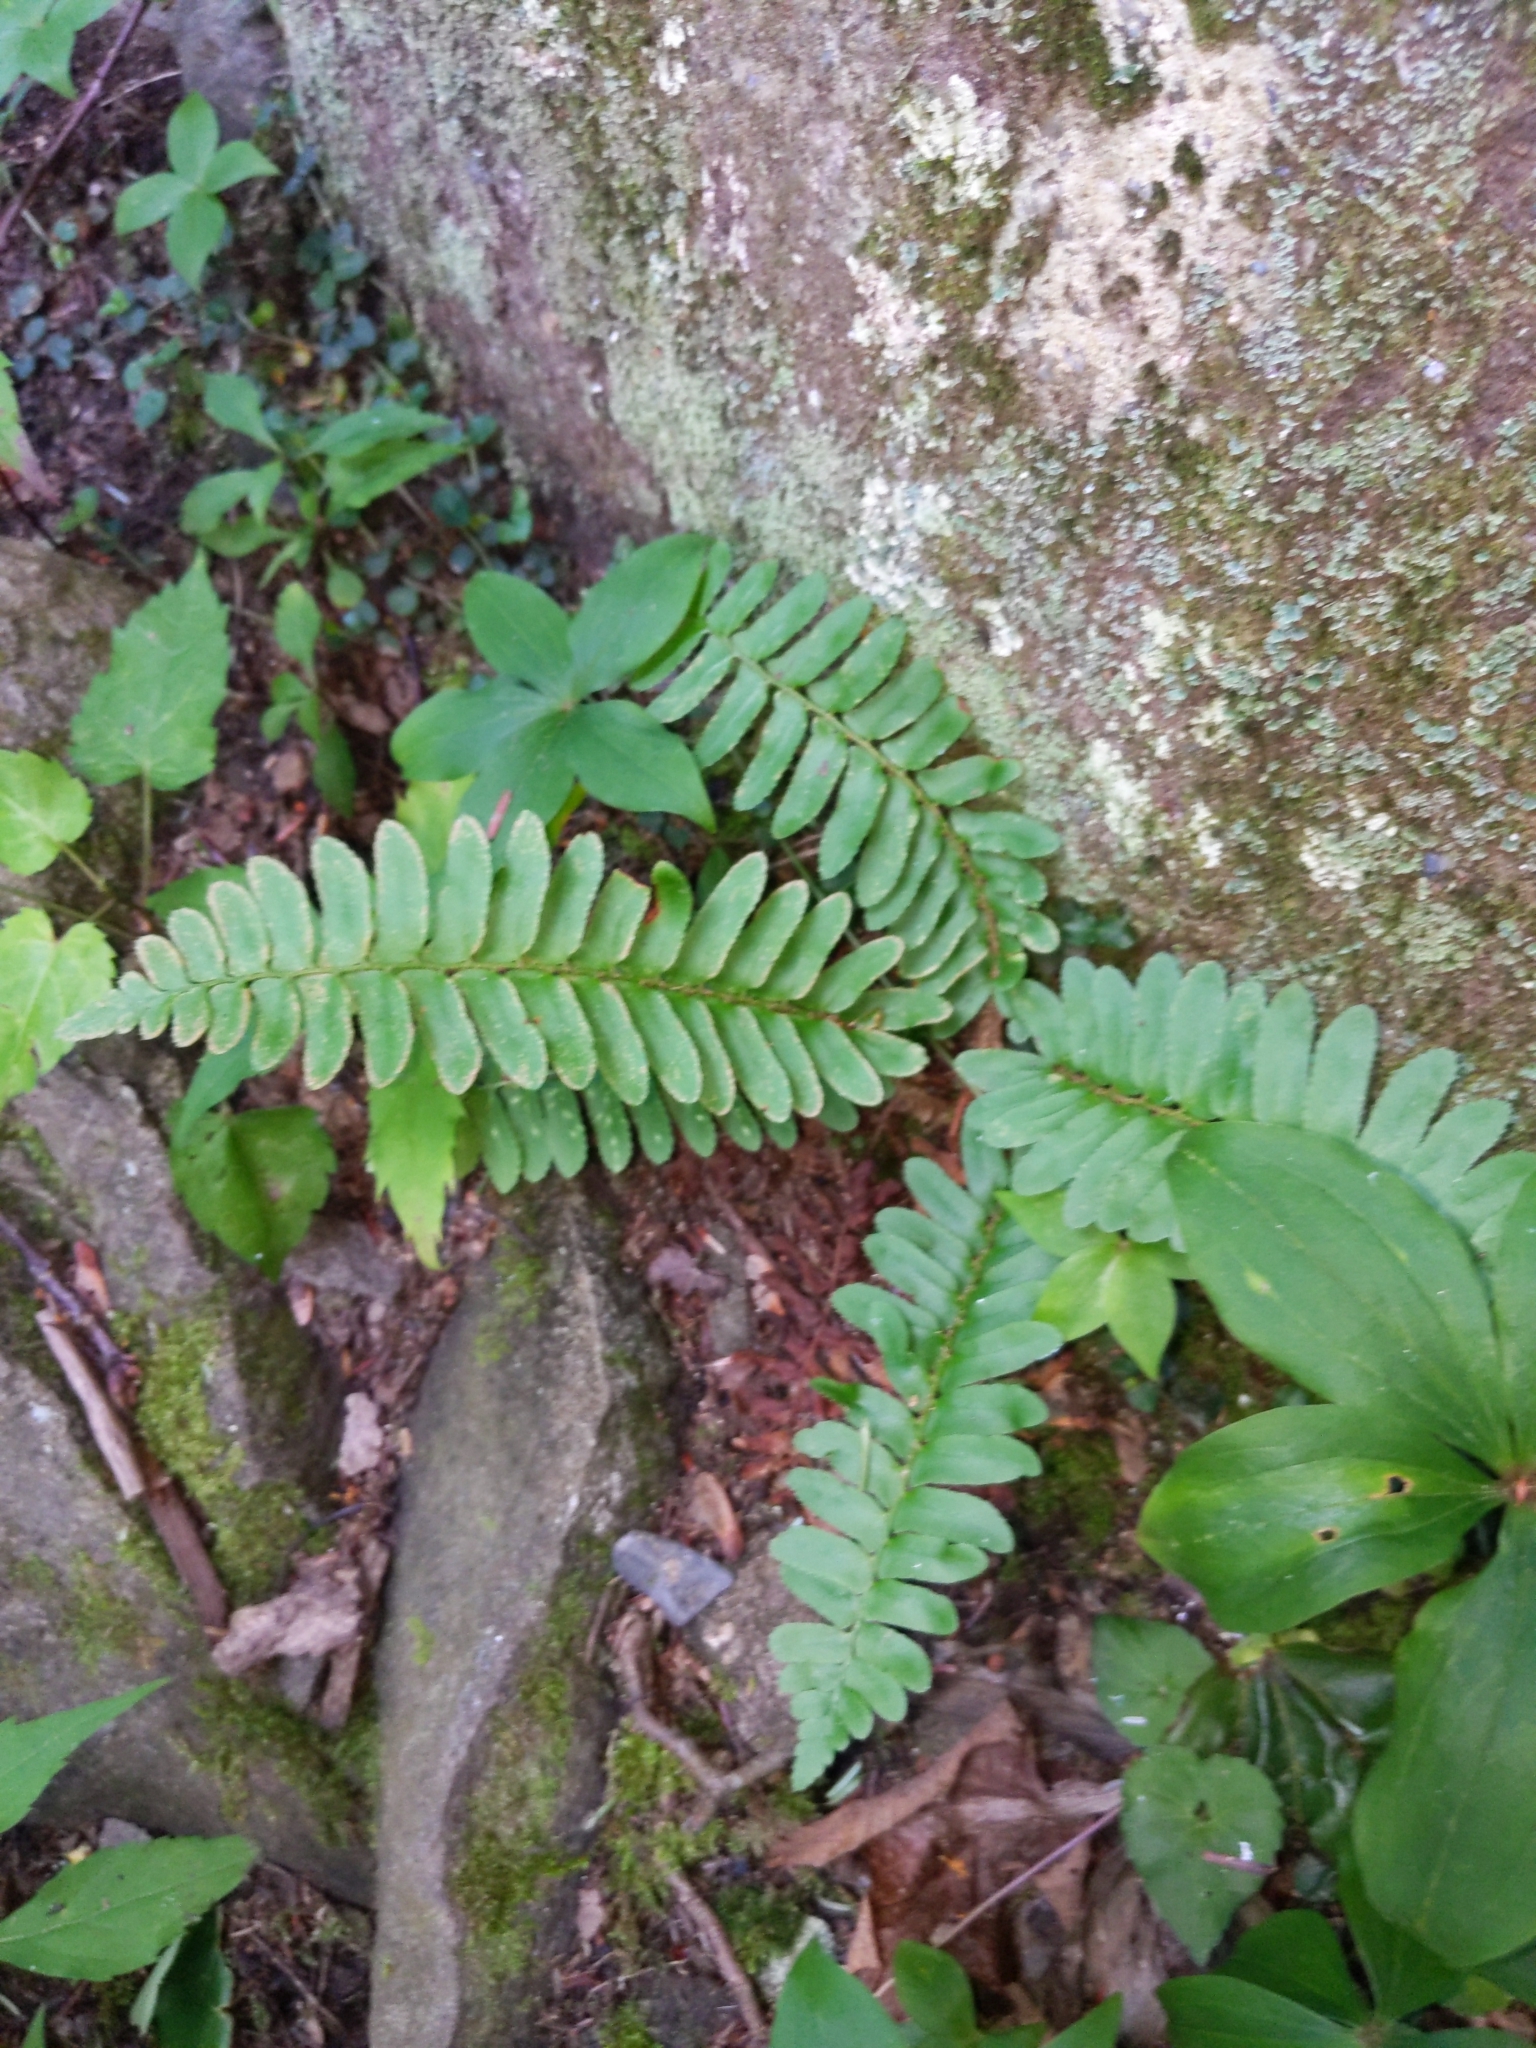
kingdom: Plantae
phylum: Tracheophyta
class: Polypodiopsida
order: Polypodiales
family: Dryopteridaceae
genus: Polystichum
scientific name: Polystichum acrostichoides
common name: Christmas fern
